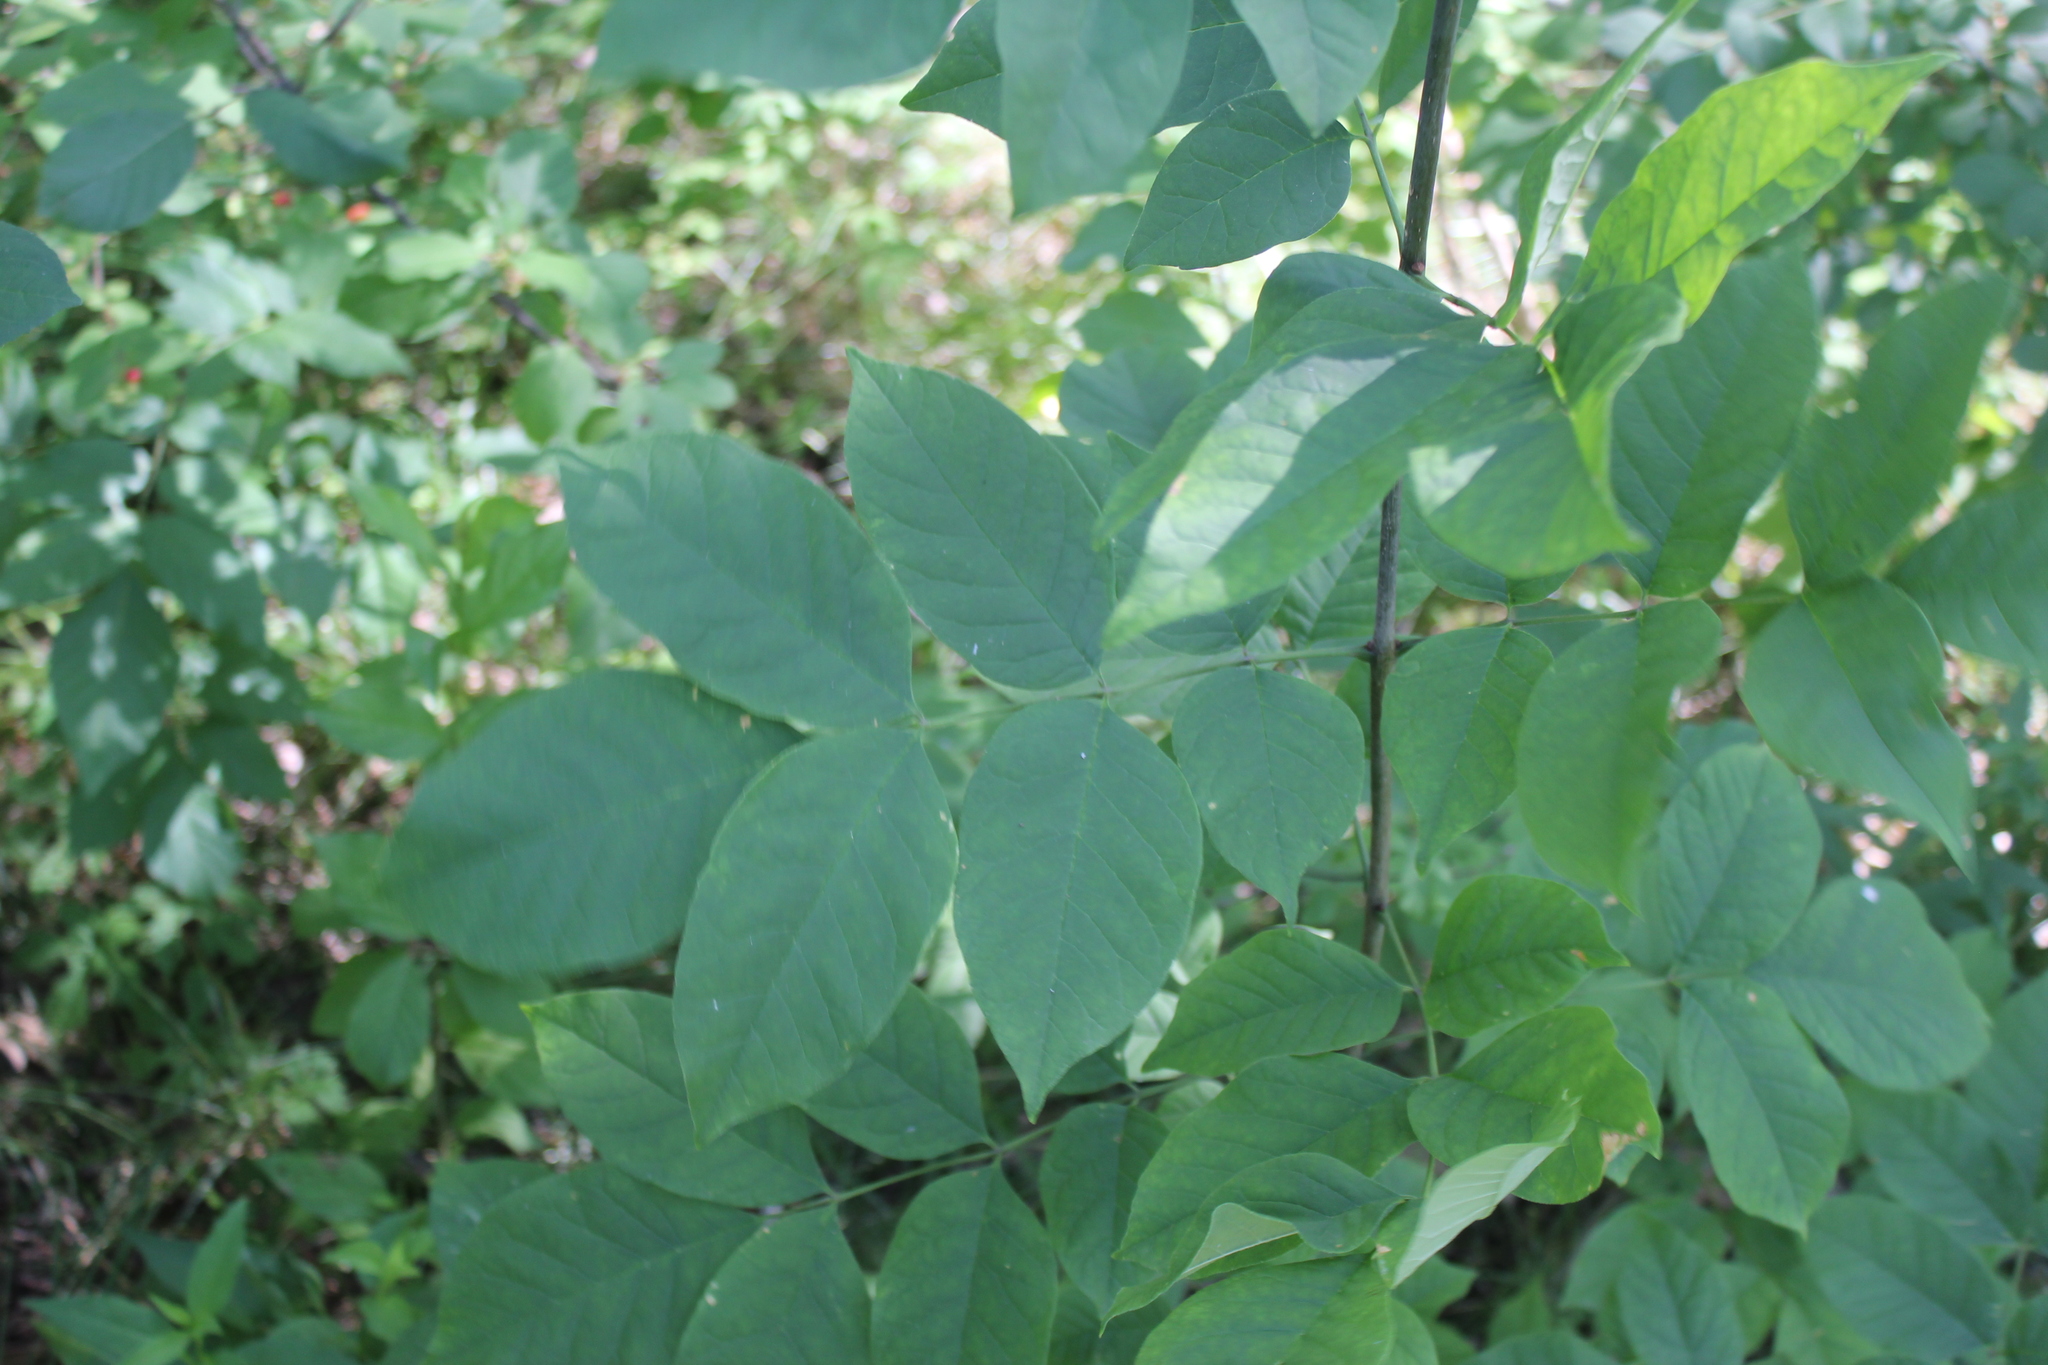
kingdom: Plantae
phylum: Tracheophyta
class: Magnoliopsida
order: Lamiales
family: Oleaceae
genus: Fraxinus
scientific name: Fraxinus americana
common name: White ash
